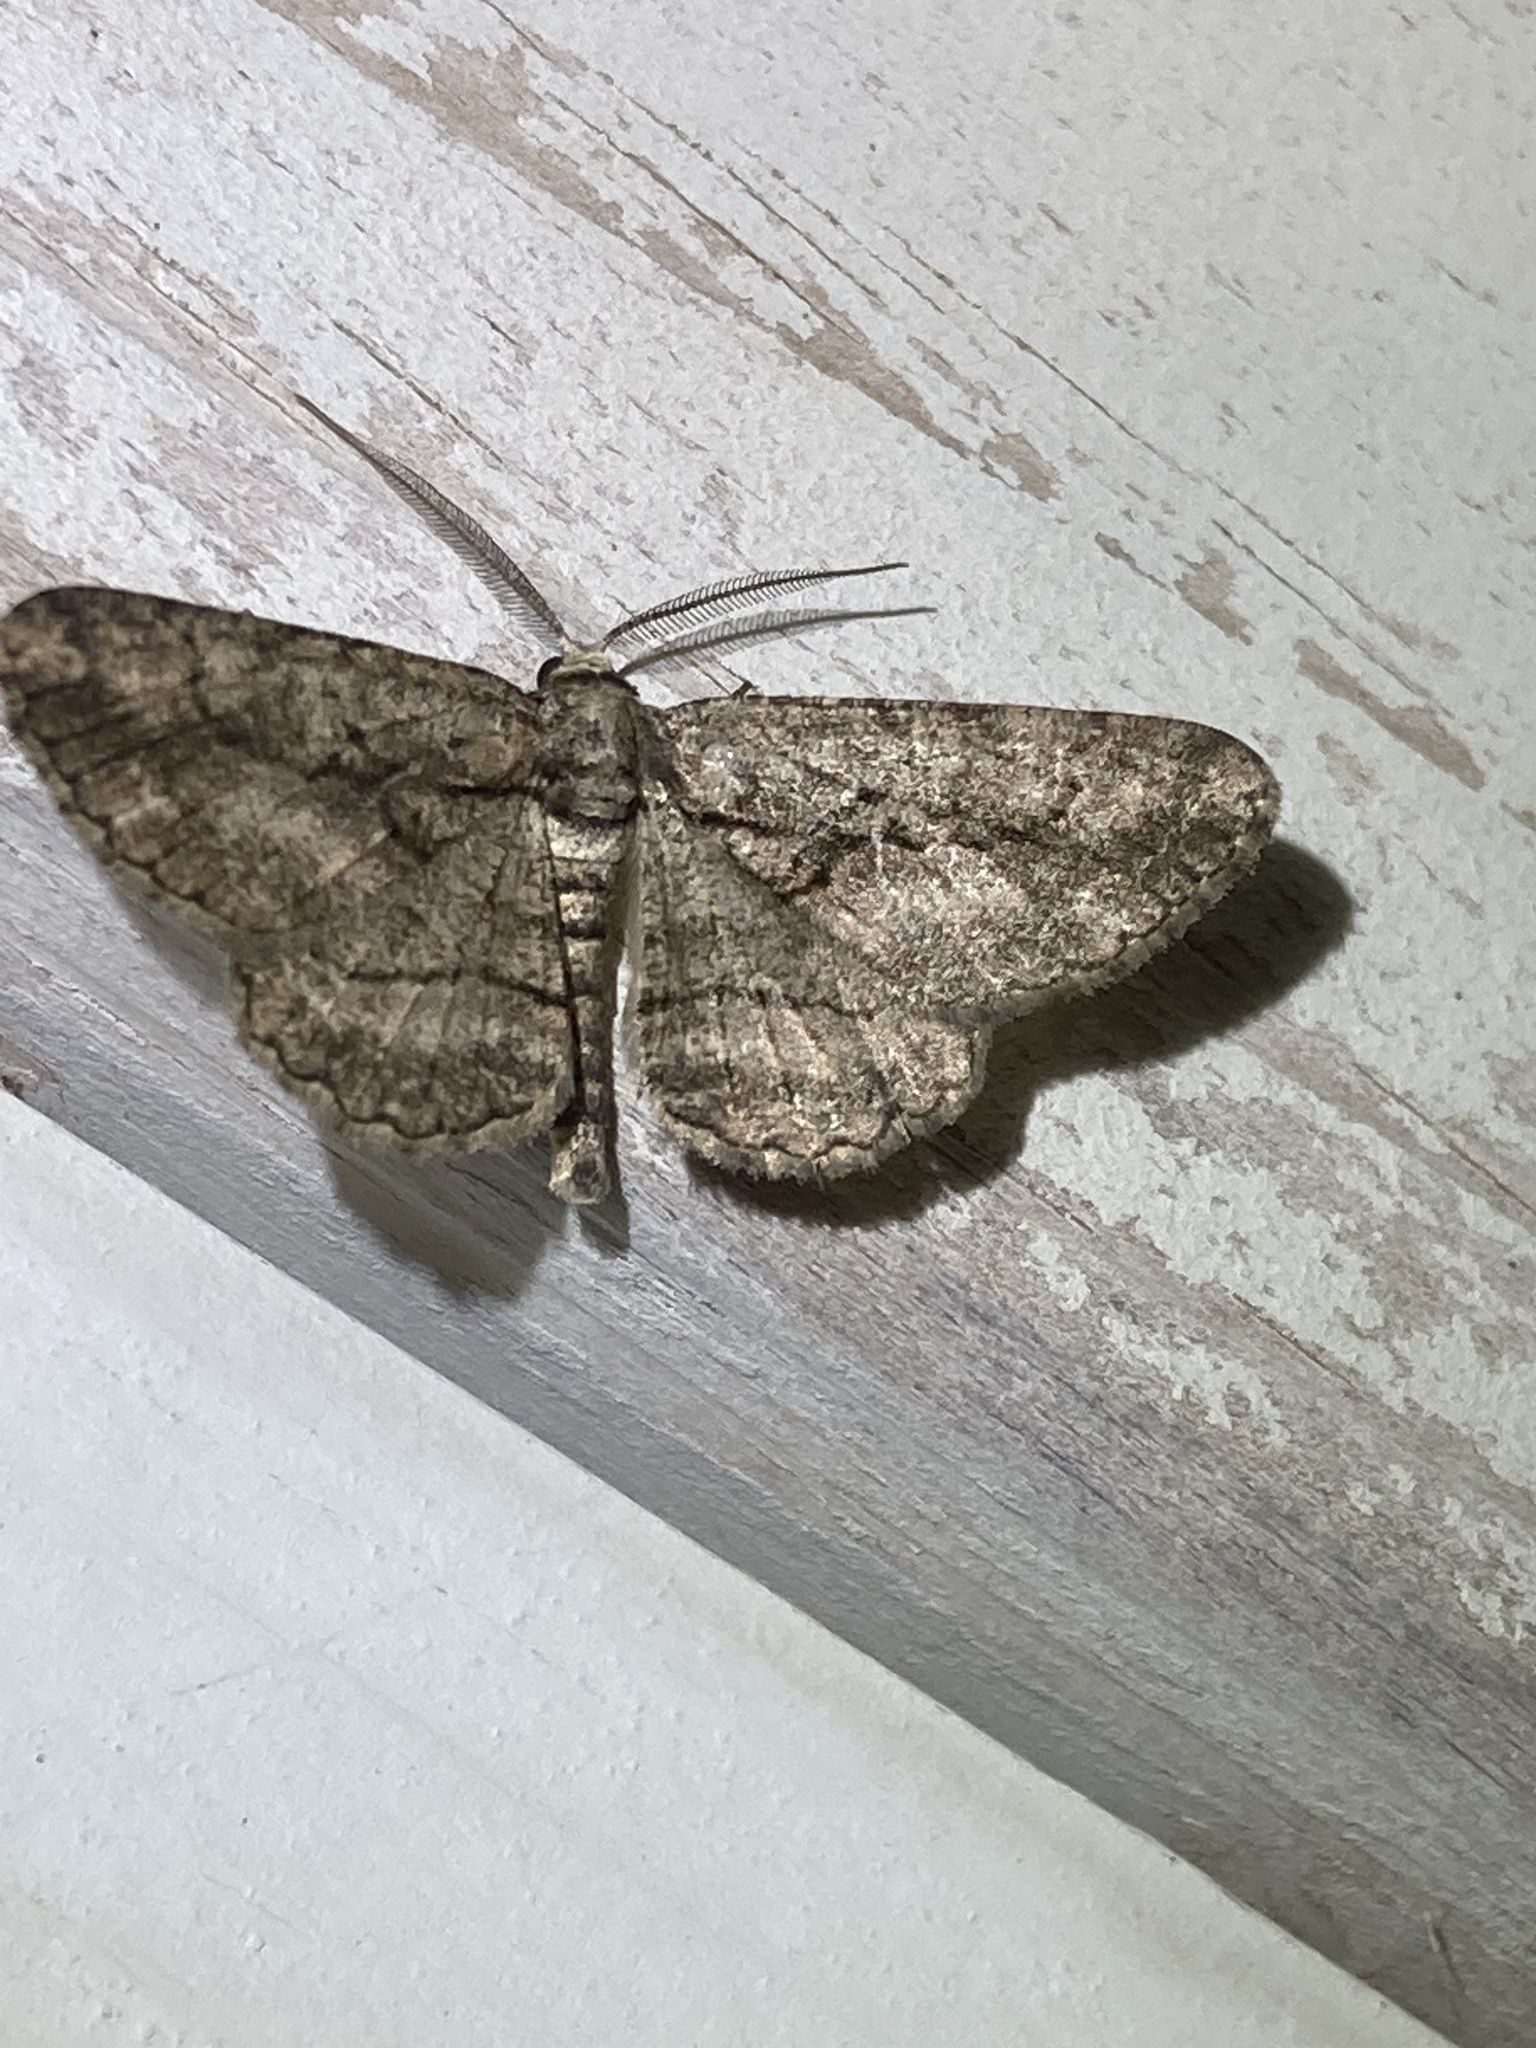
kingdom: Animalia
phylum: Arthropoda
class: Insecta
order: Lepidoptera
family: Geometridae
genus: Anavitrinella
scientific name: Anavitrinella pampinaria
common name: Common gray
